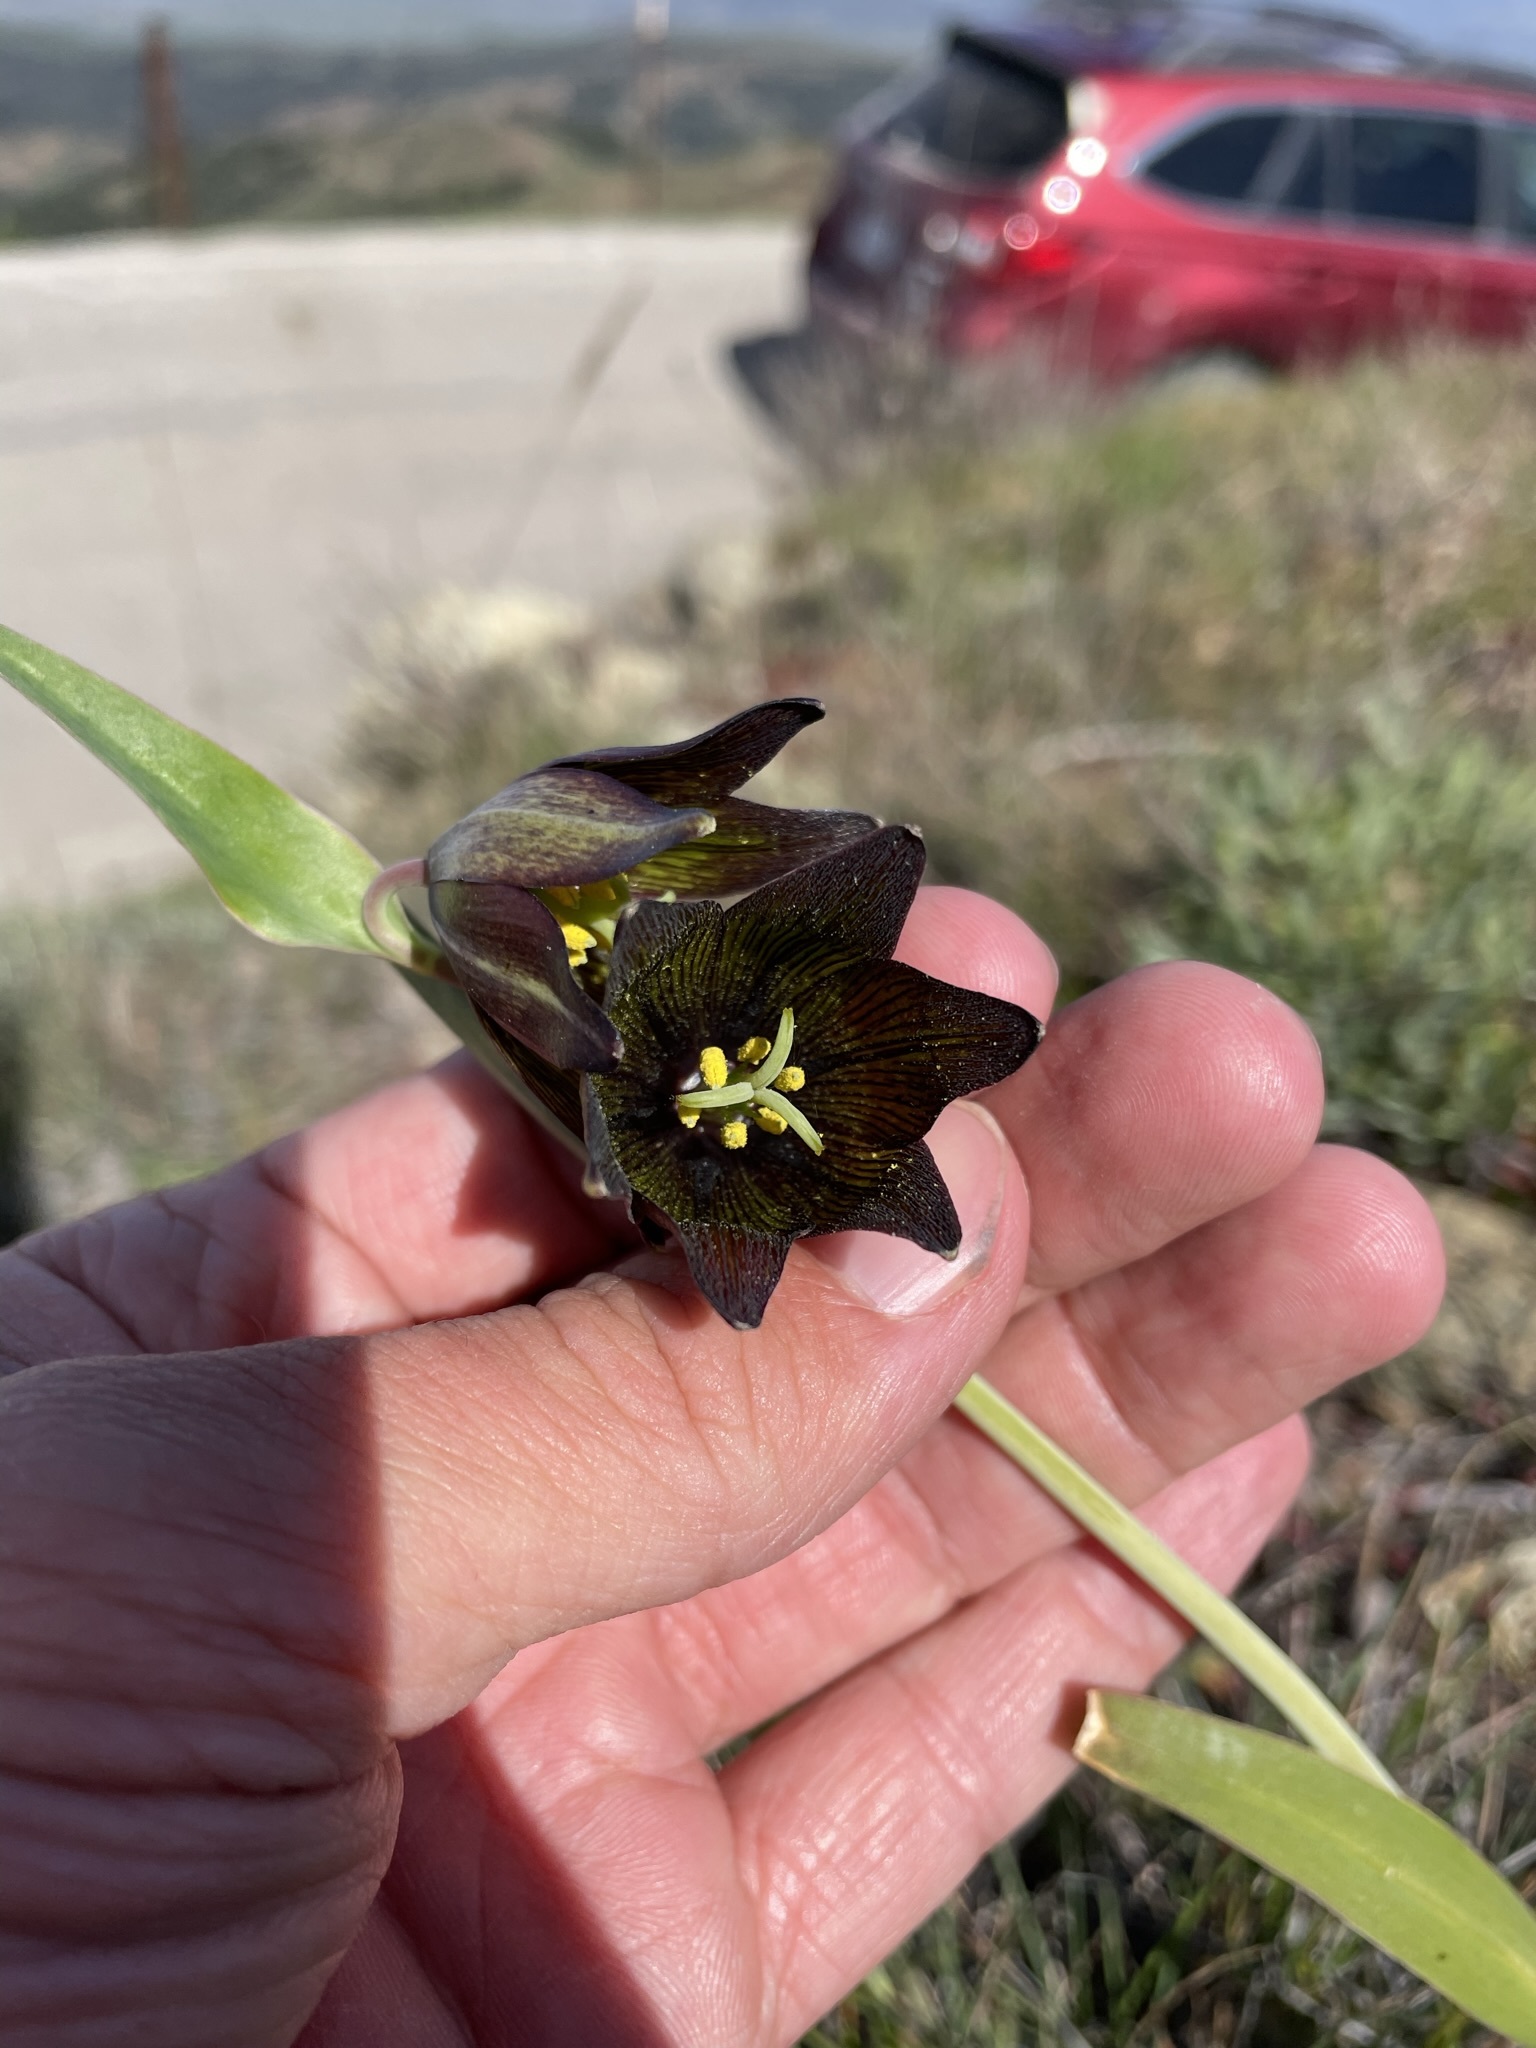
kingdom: Plantae
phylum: Tracheophyta
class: Liliopsida
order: Liliales
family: Liliaceae
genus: Fritillaria
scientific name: Fritillaria biflora
